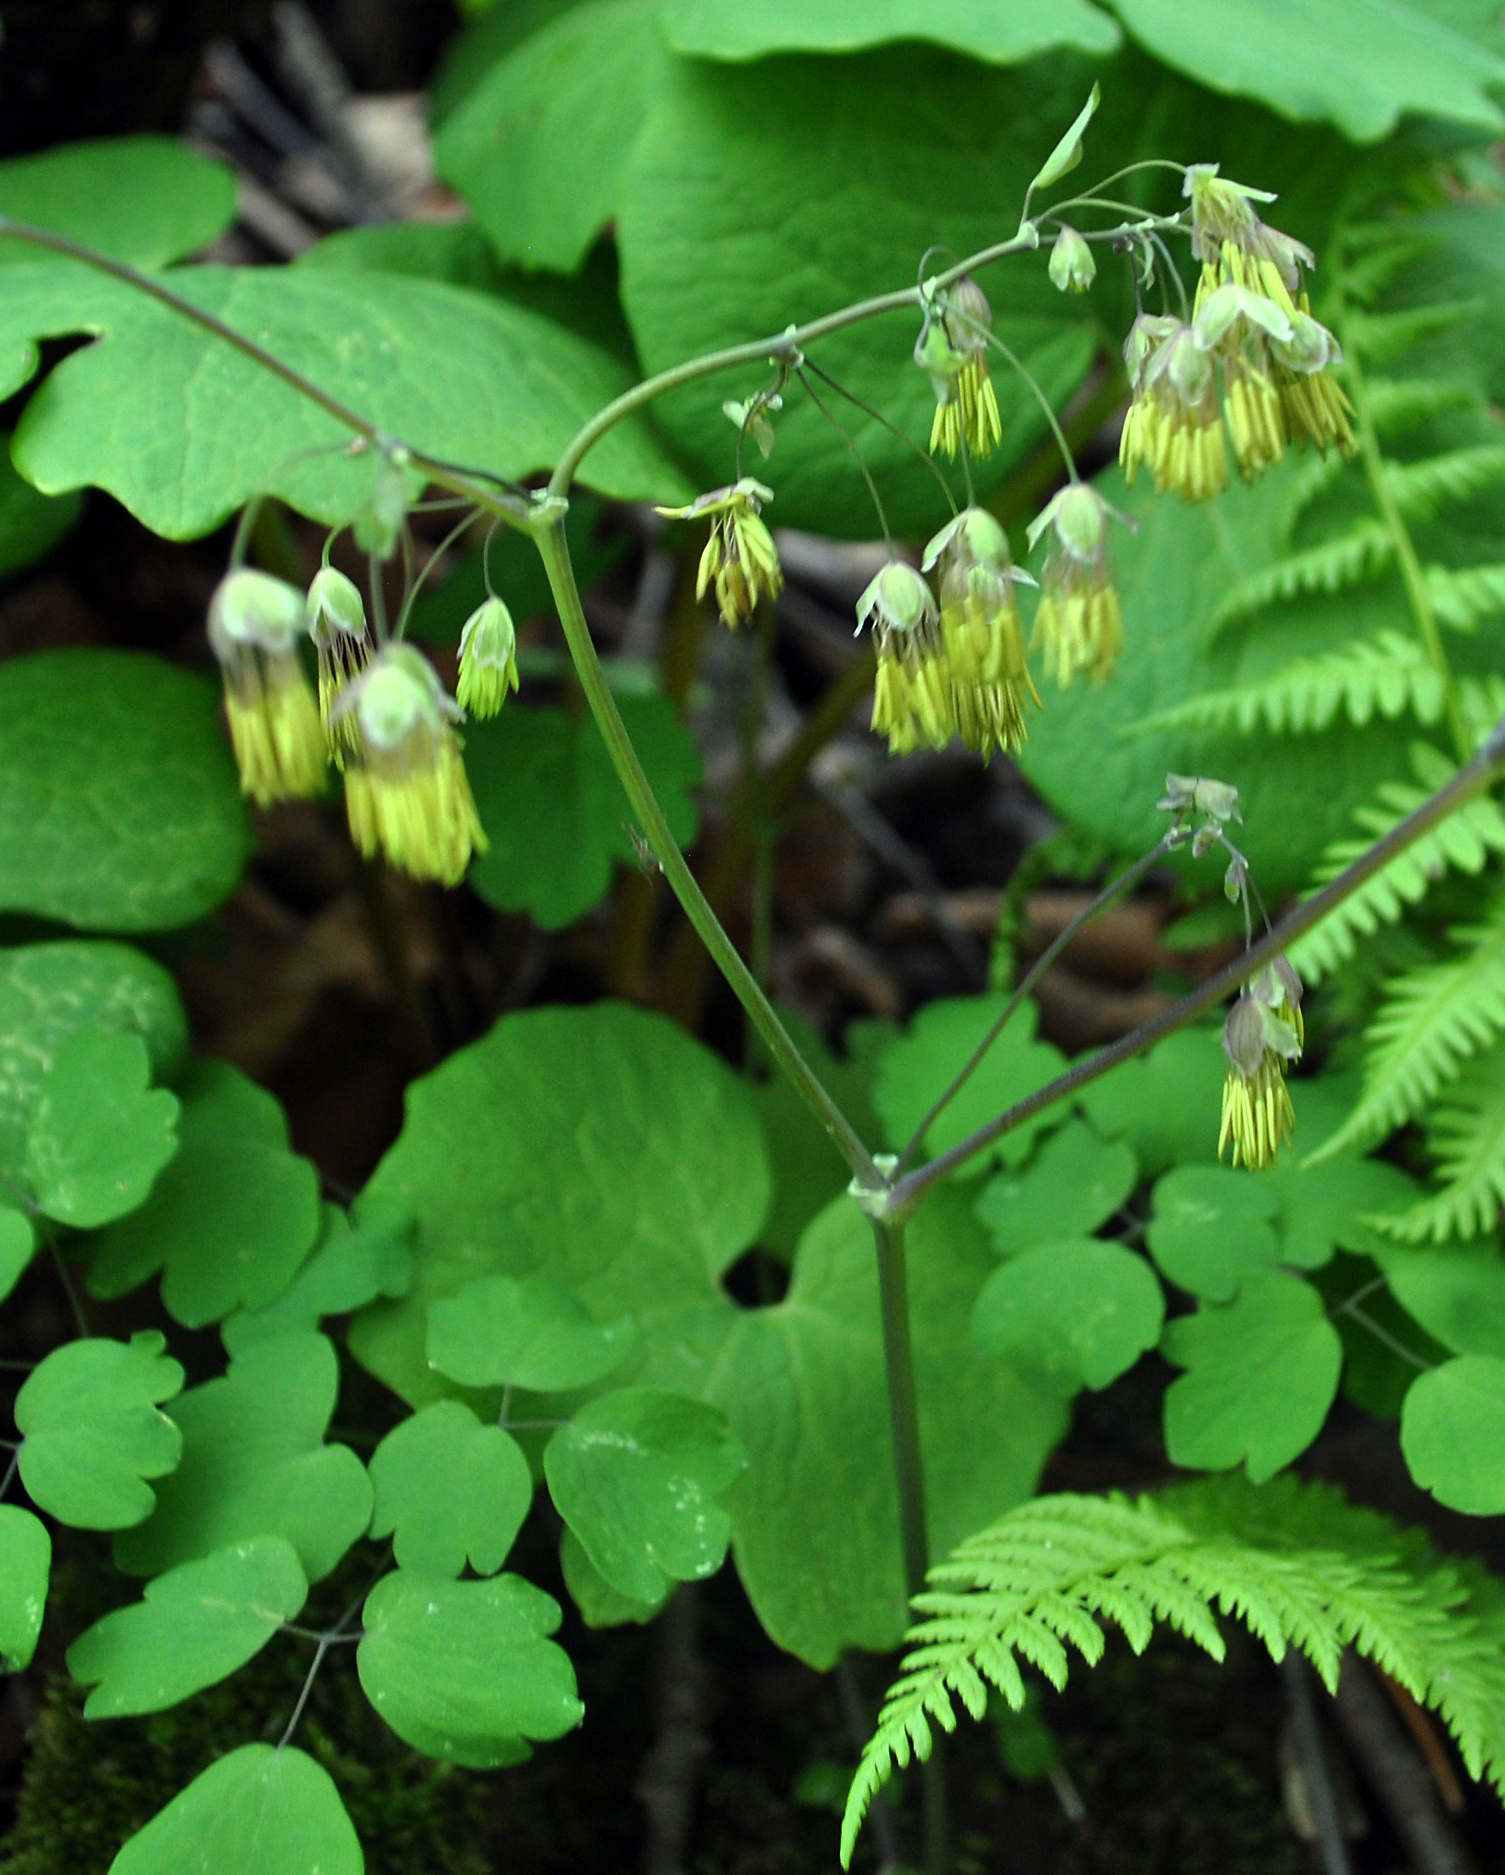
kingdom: Plantae
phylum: Tracheophyta
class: Magnoliopsida
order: Ranunculales
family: Ranunculaceae
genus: Thalictrum
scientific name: Thalictrum dioicum
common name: Early meadow-rue
